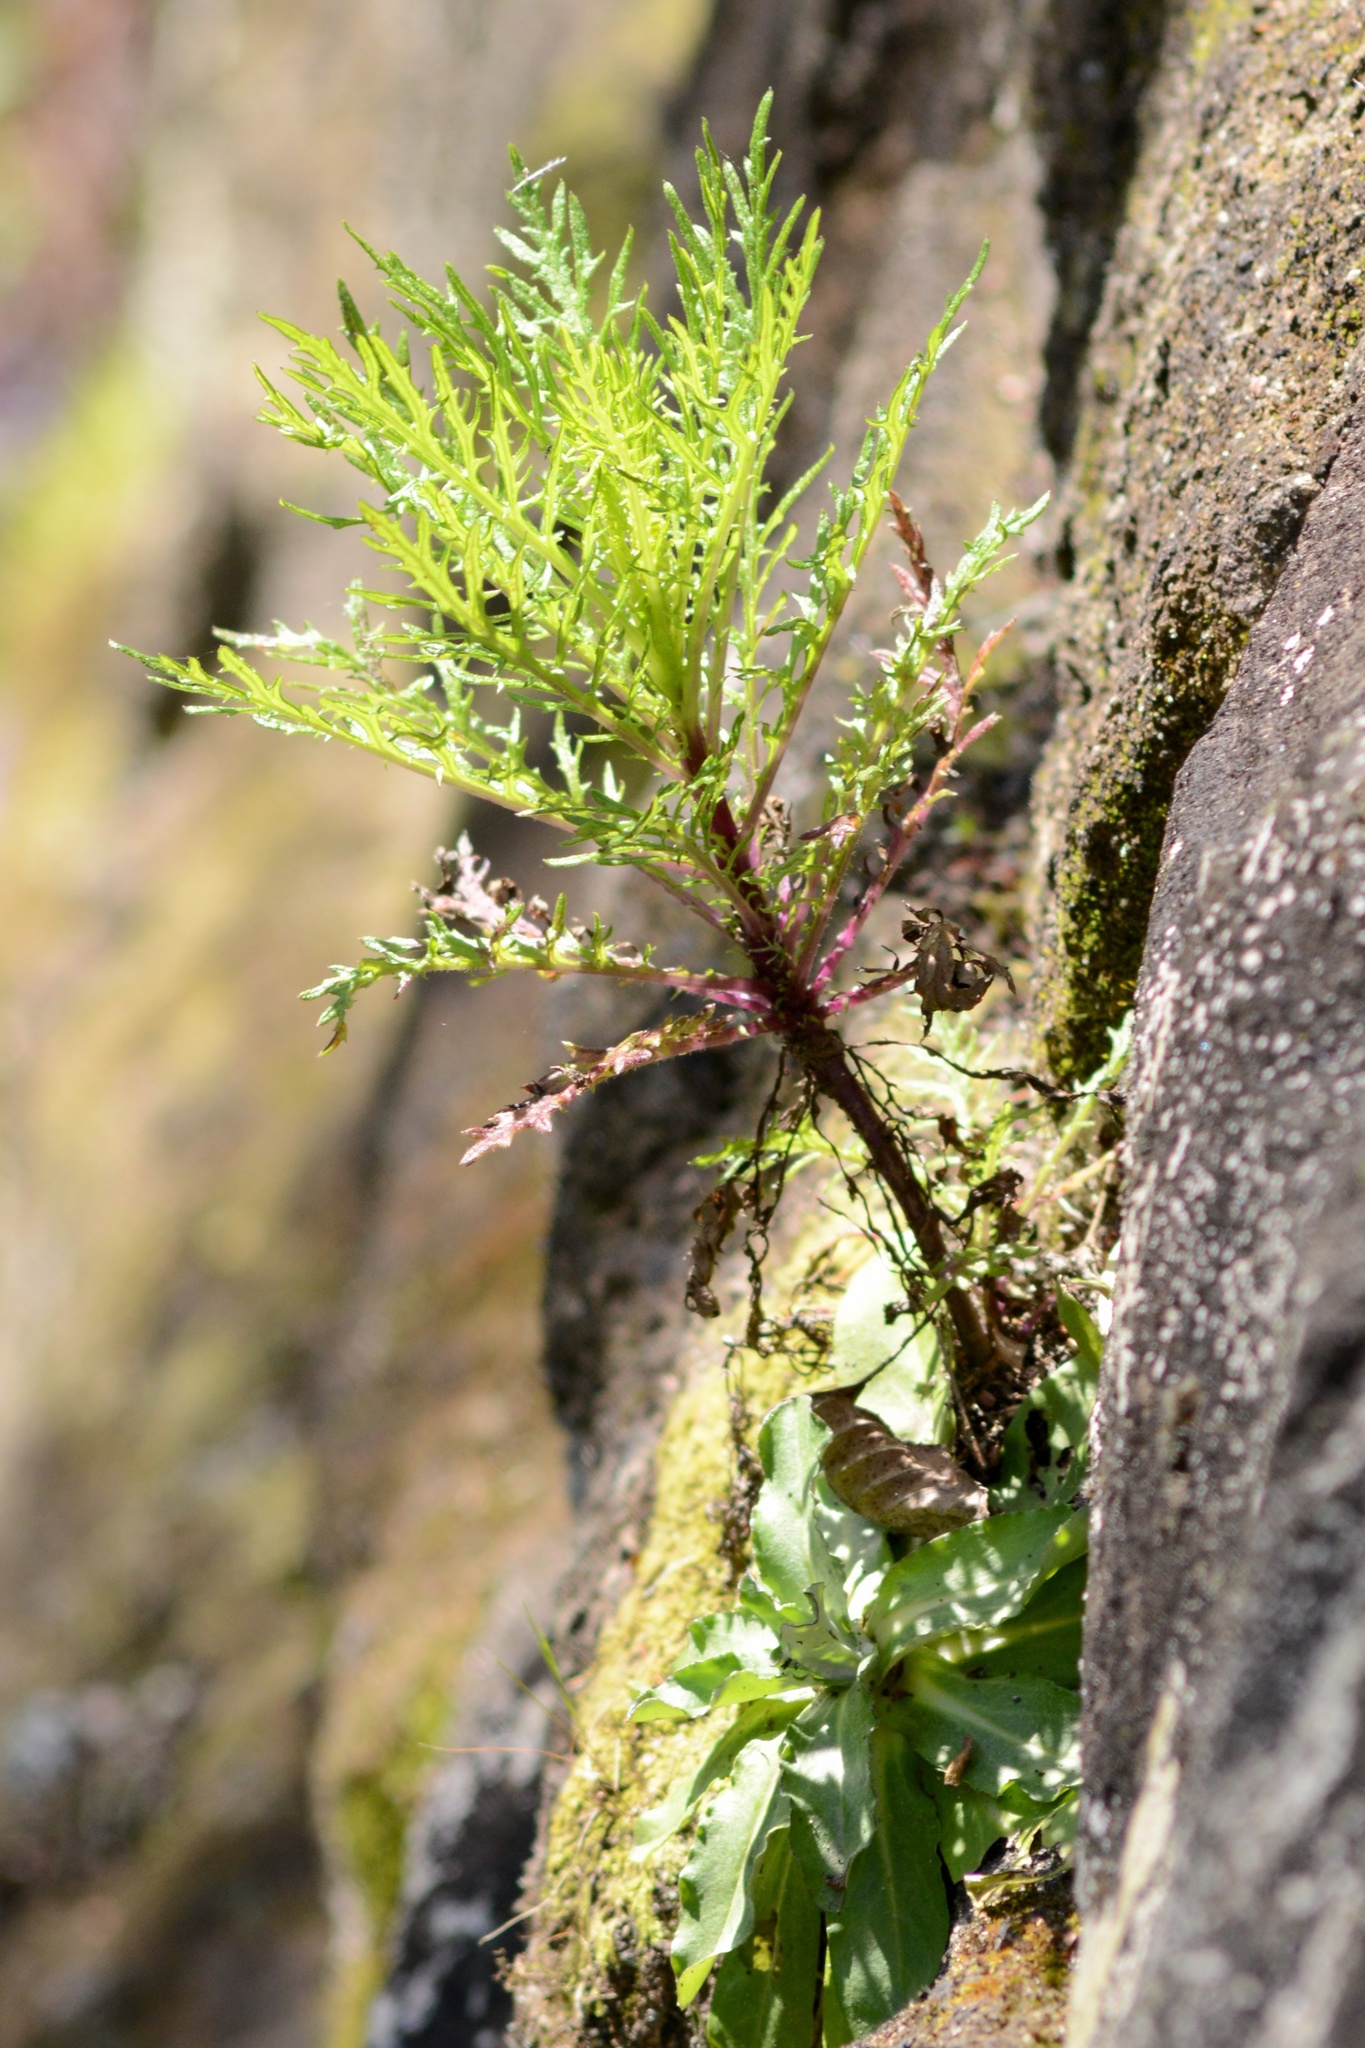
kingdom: Plantae
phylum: Tracheophyta
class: Magnoliopsida
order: Asterales
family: Asteraceae
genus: Senecio
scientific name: Senecio bipinnatisectus
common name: Australian fireweed
